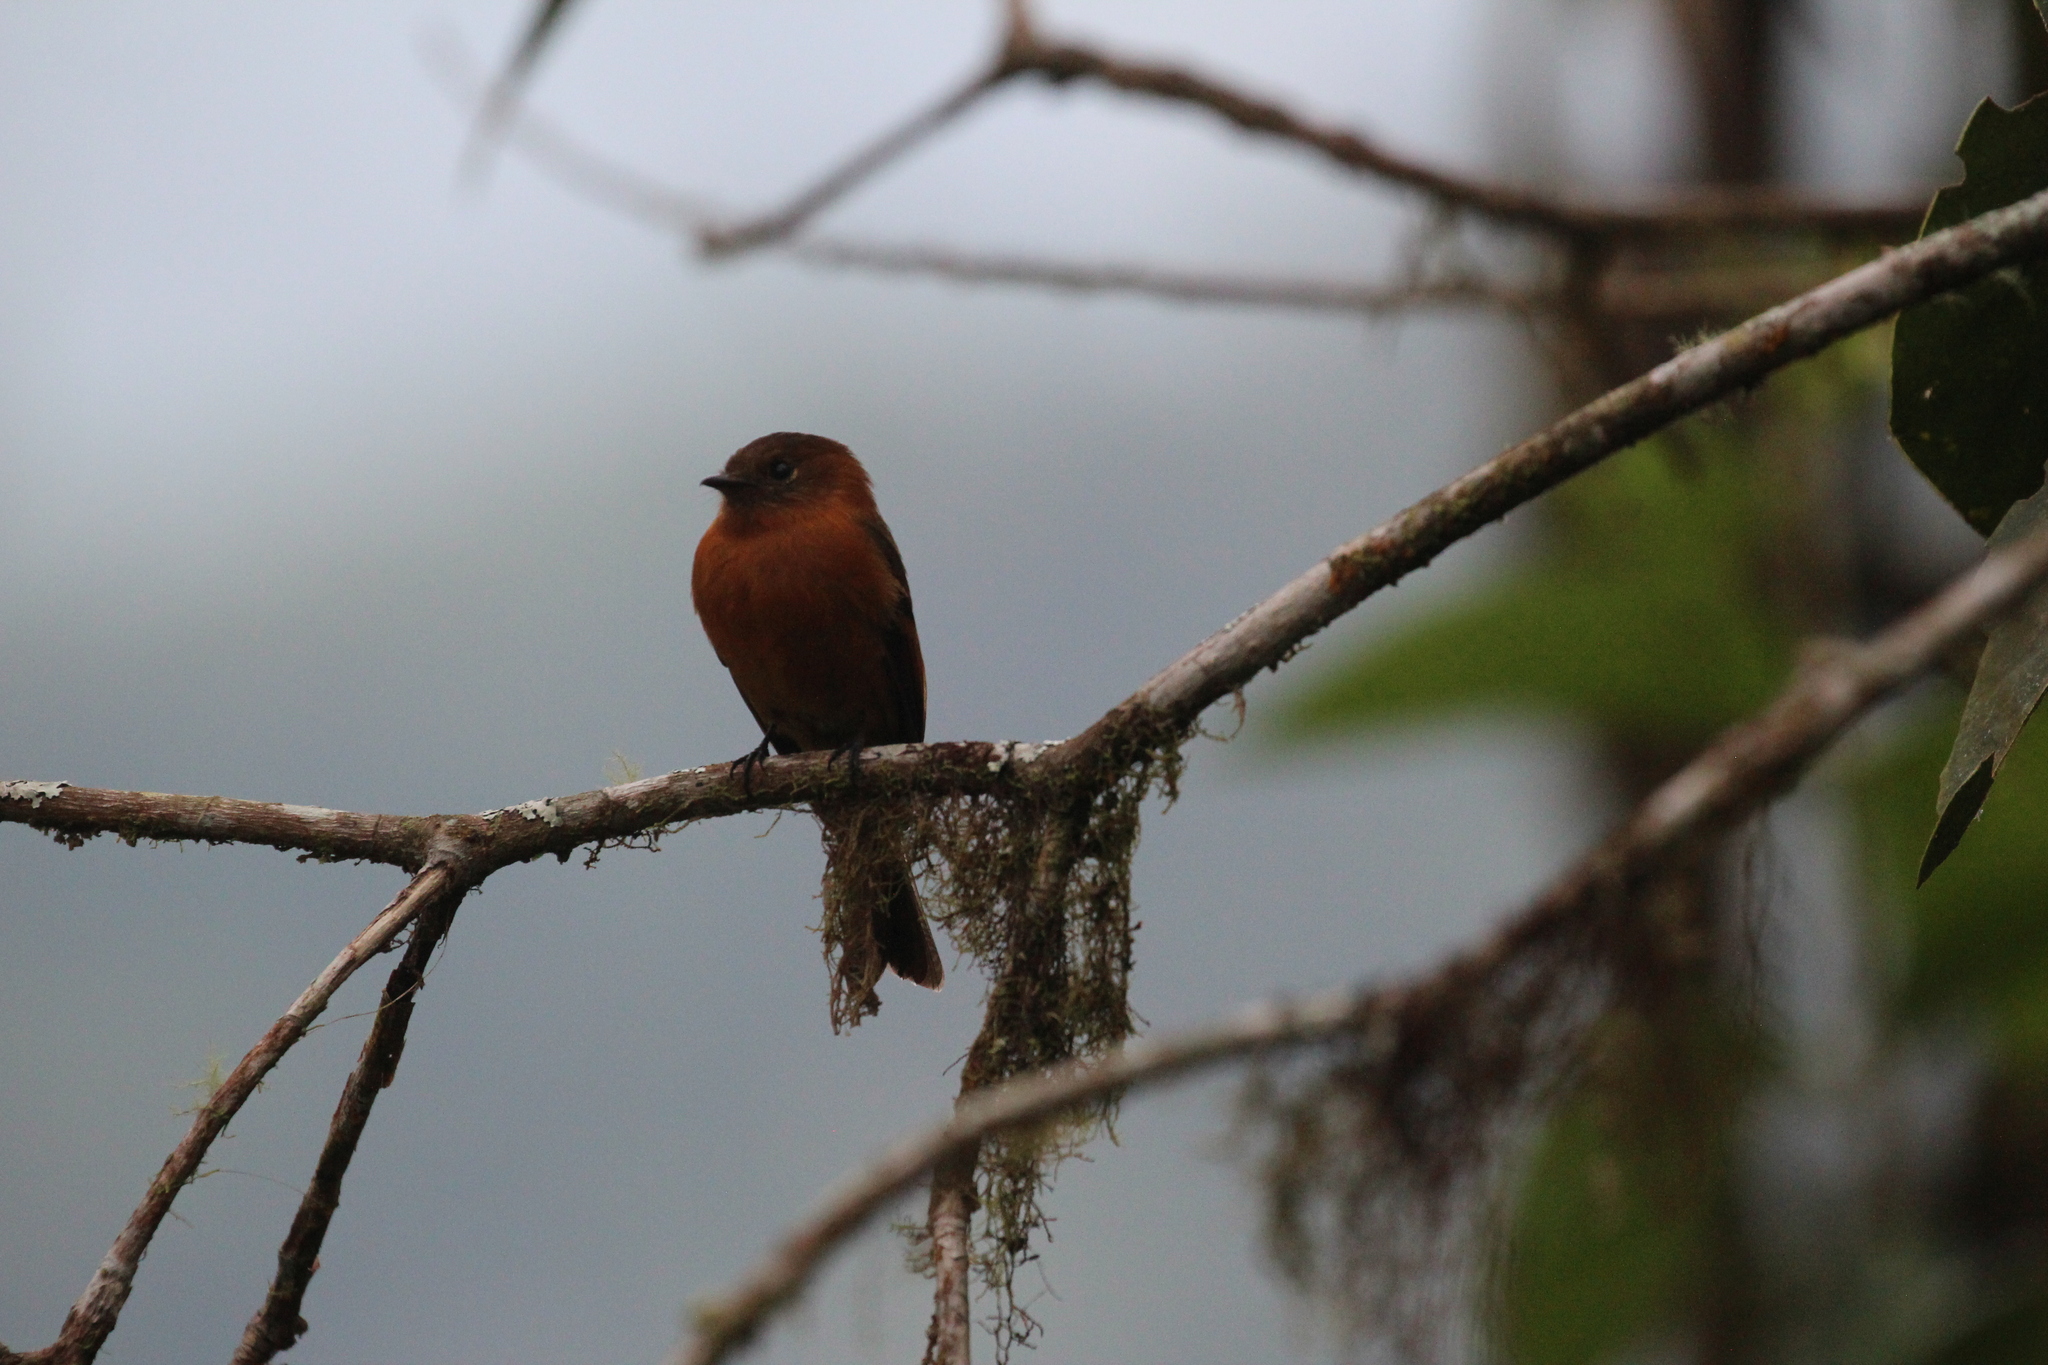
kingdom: Animalia
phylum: Chordata
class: Aves
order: Passeriformes
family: Tyrannidae
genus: Pyrrhomyias
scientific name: Pyrrhomyias cinnamomeus
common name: Cinnamon flycatcher
